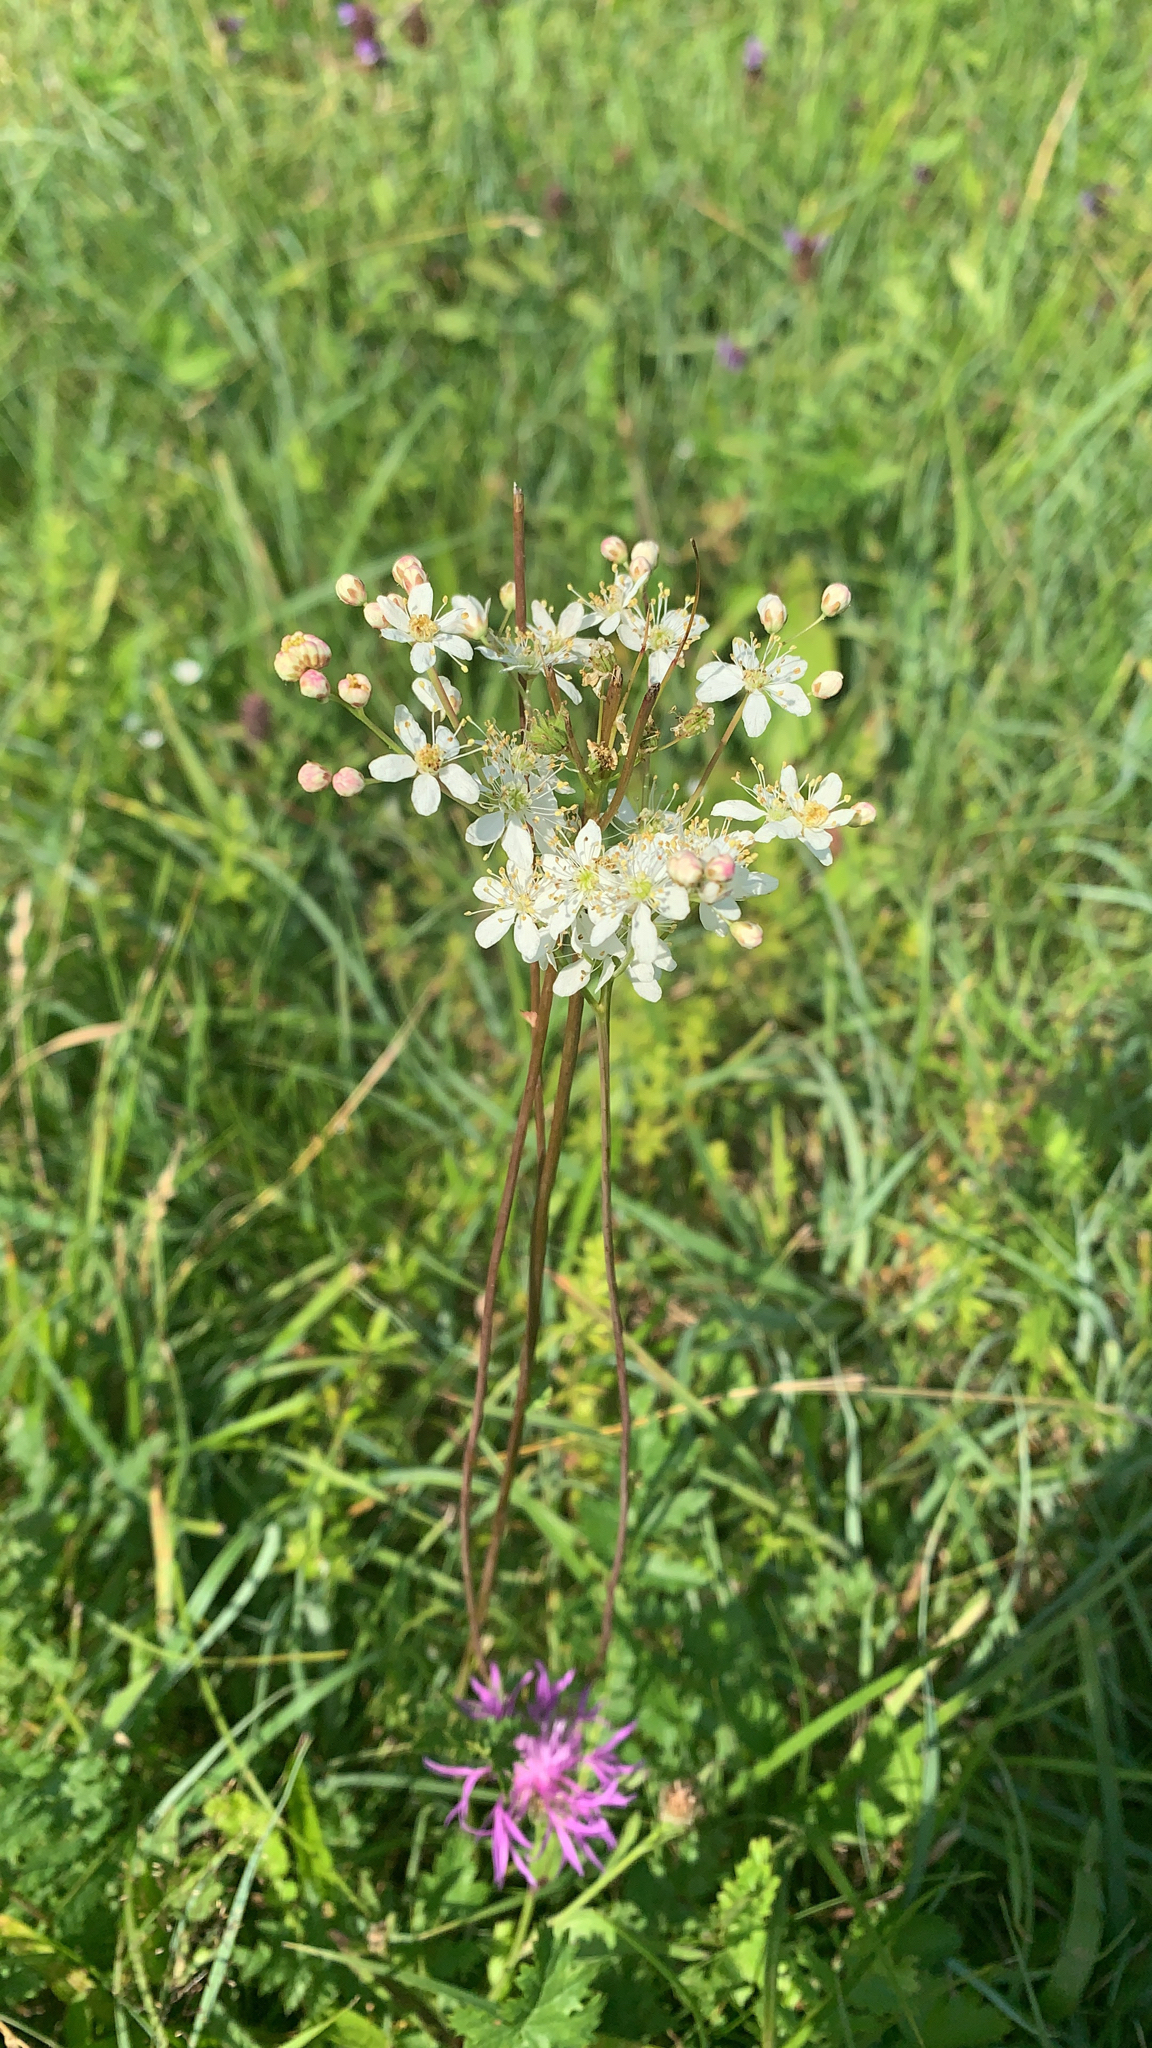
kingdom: Plantae
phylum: Tracheophyta
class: Magnoliopsida
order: Rosales
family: Rosaceae
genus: Filipendula
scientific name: Filipendula vulgaris
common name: Dropwort
